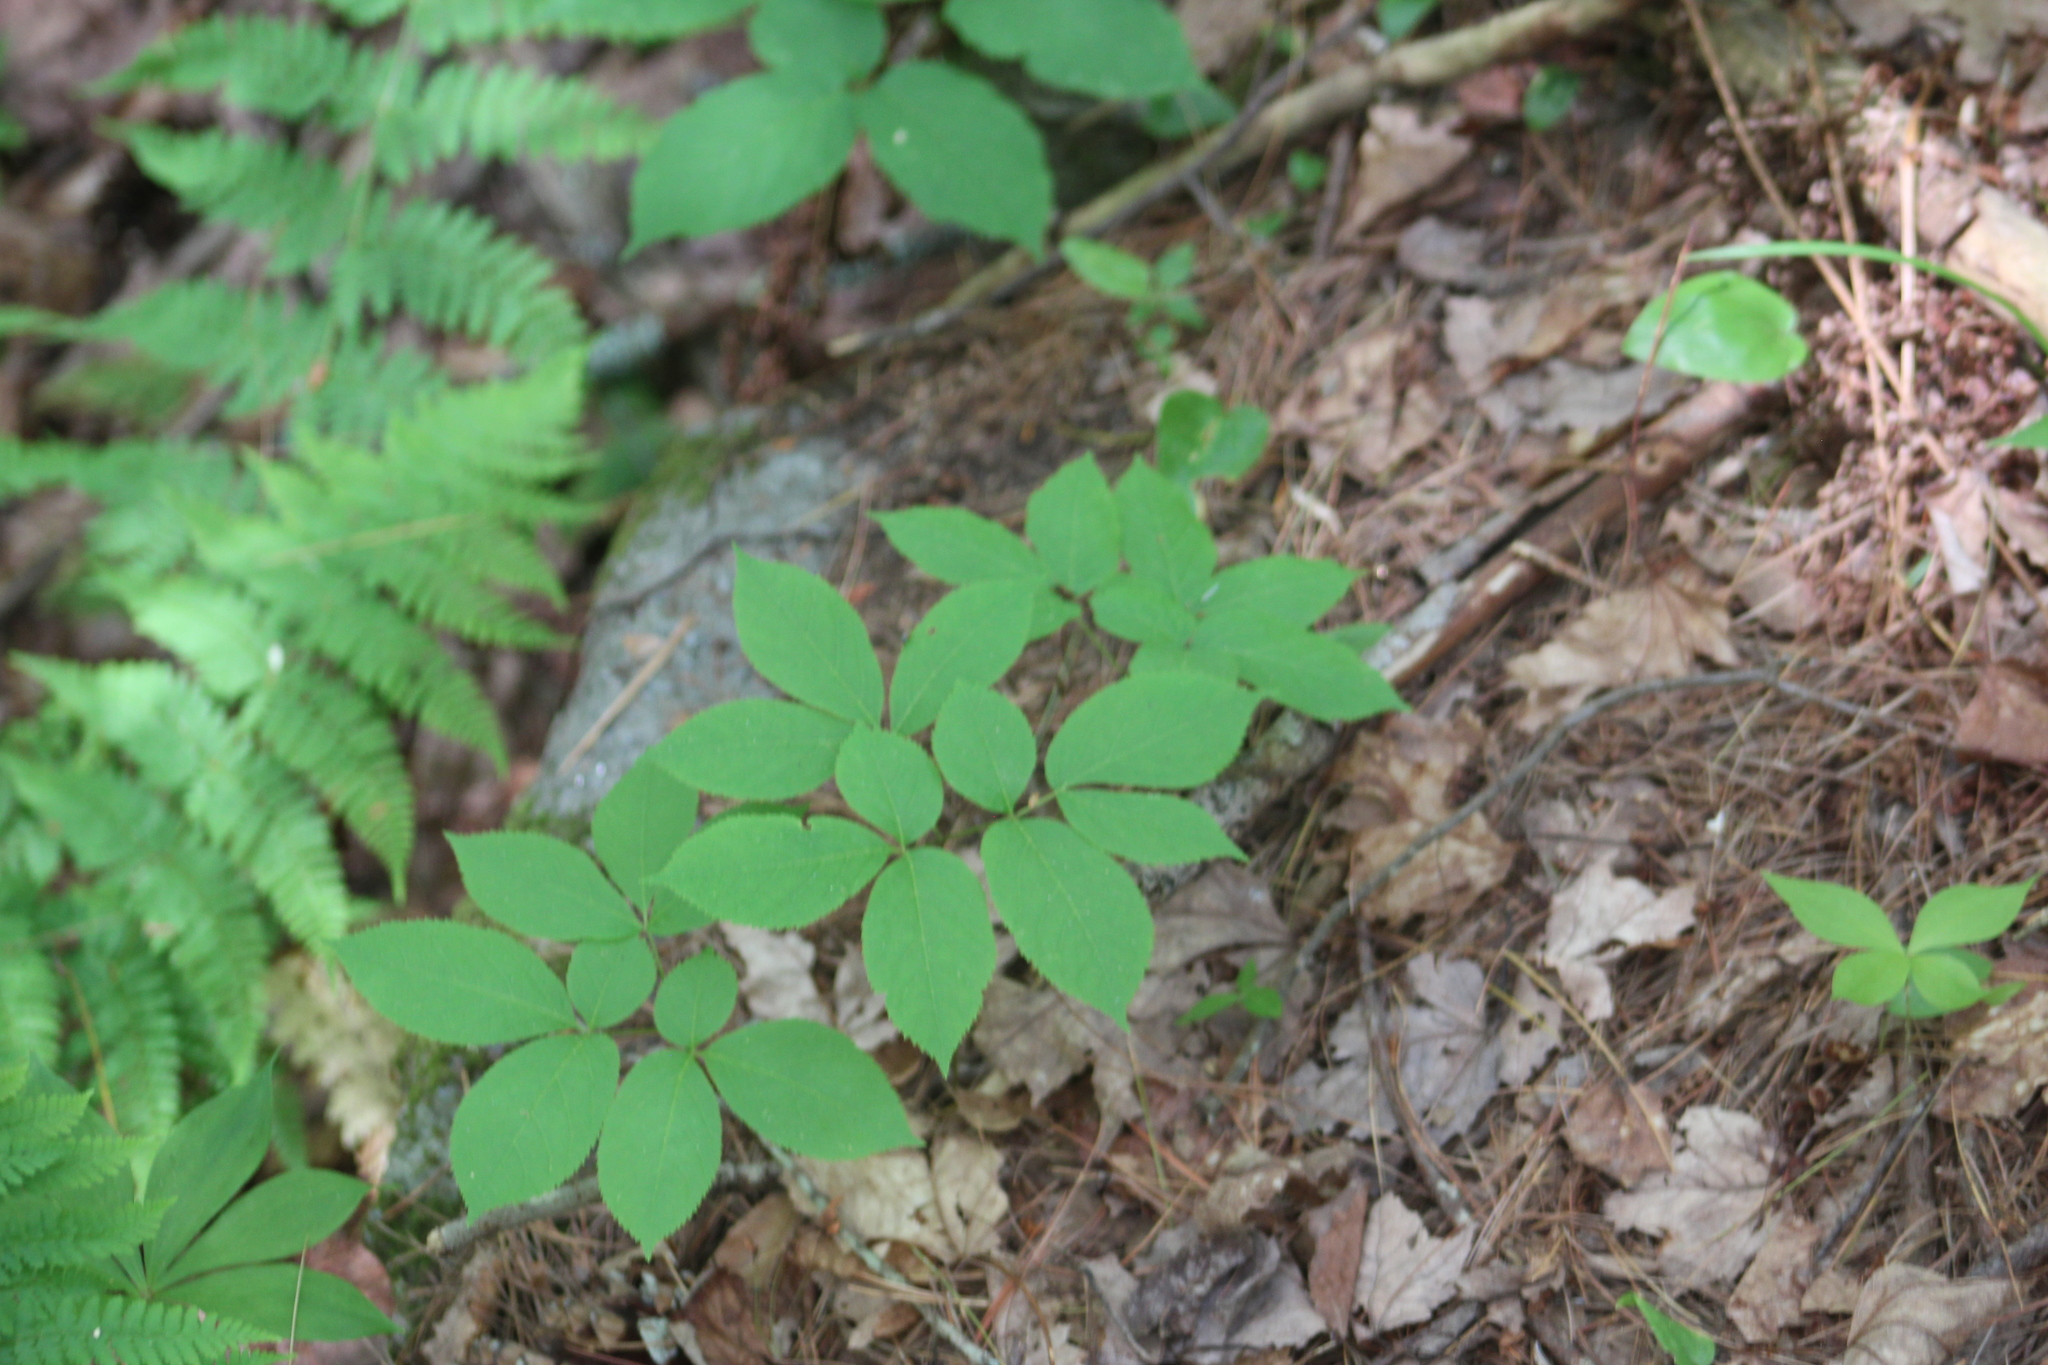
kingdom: Plantae
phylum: Tracheophyta
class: Magnoliopsida
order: Apiales
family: Araliaceae
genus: Aralia
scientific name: Aralia nudicaulis
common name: Wild sarsaparilla
